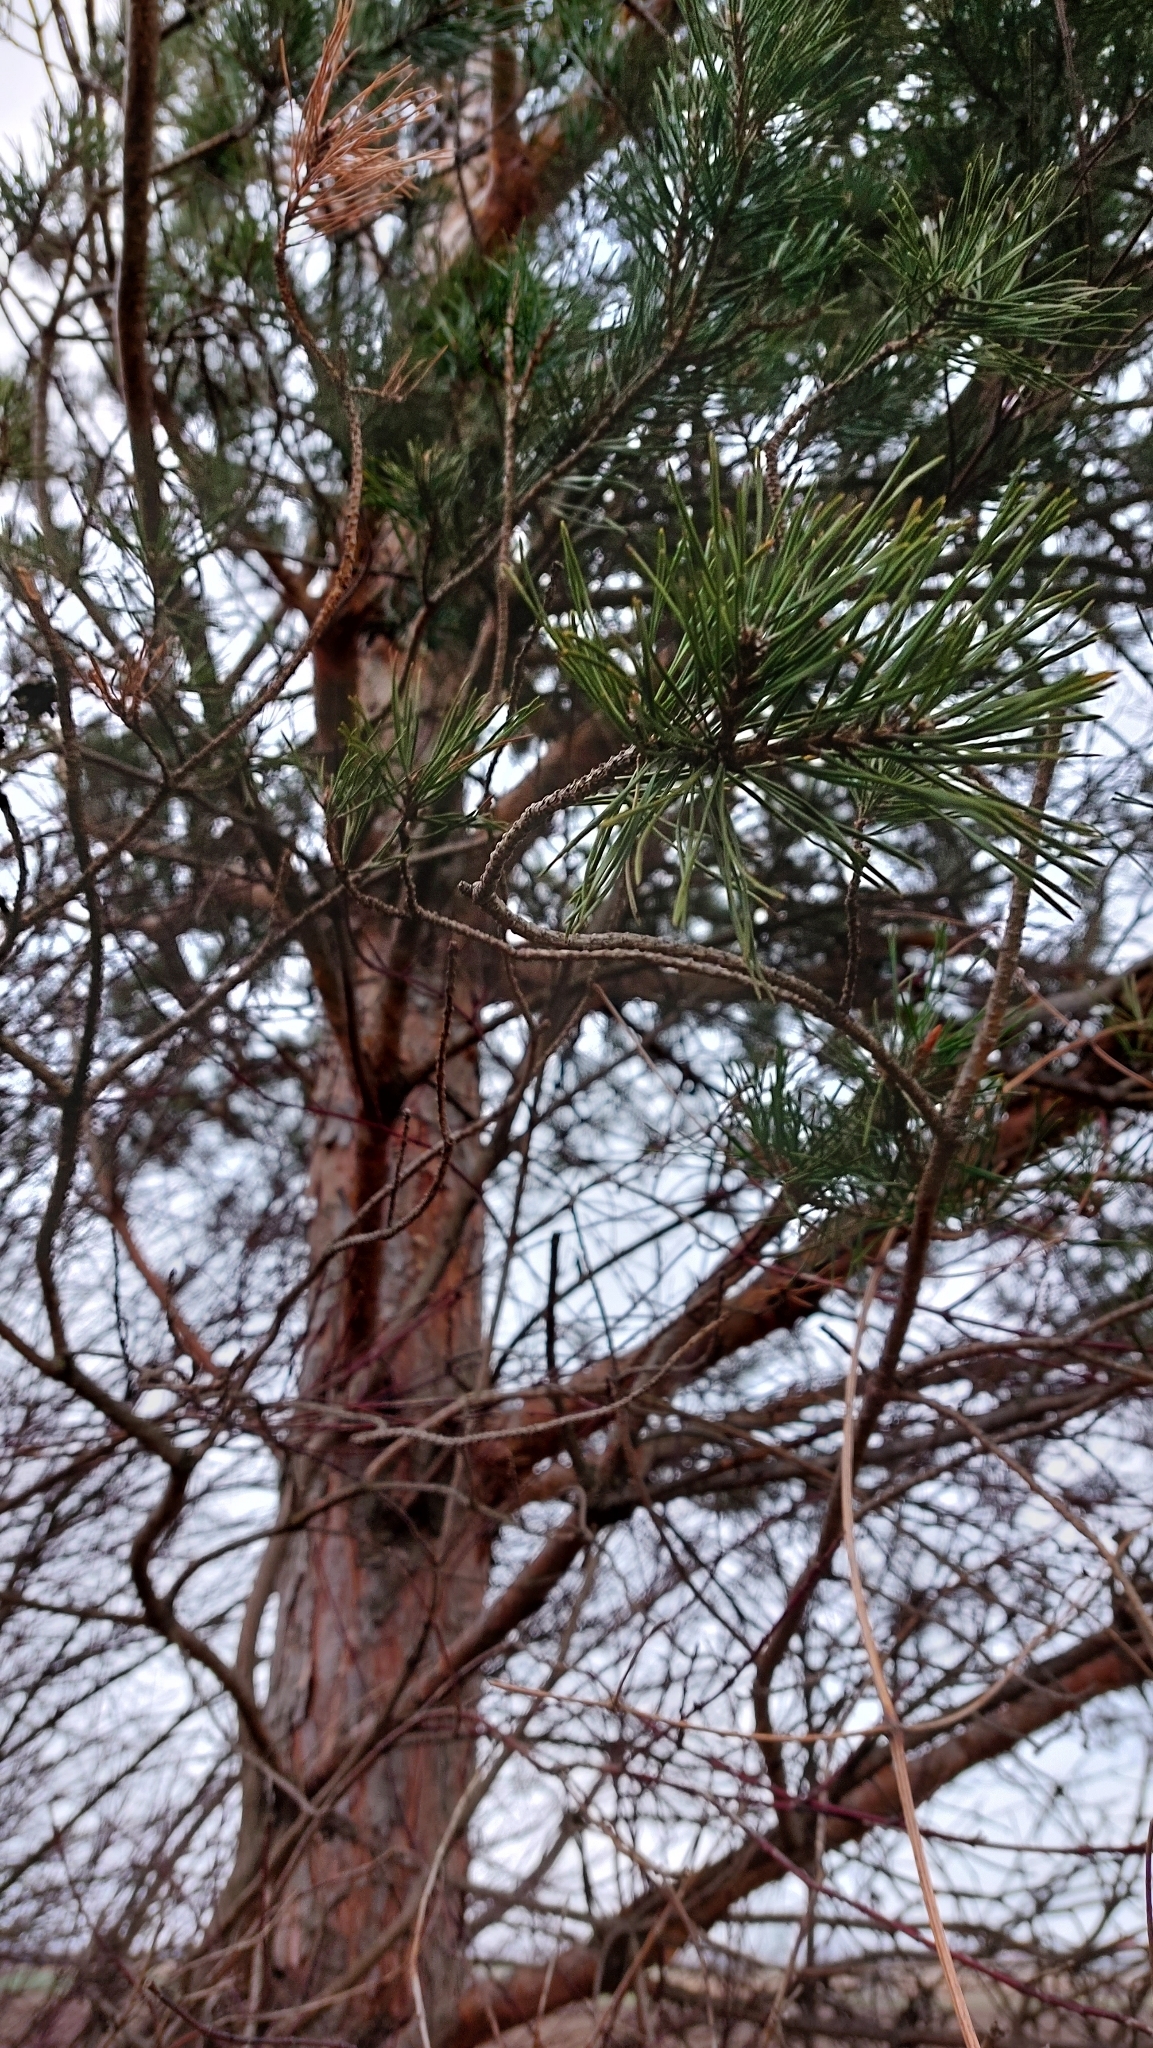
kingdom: Plantae
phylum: Tracheophyta
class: Pinopsida
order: Pinales
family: Pinaceae
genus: Pinus
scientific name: Pinus sylvestris
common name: Scots pine
